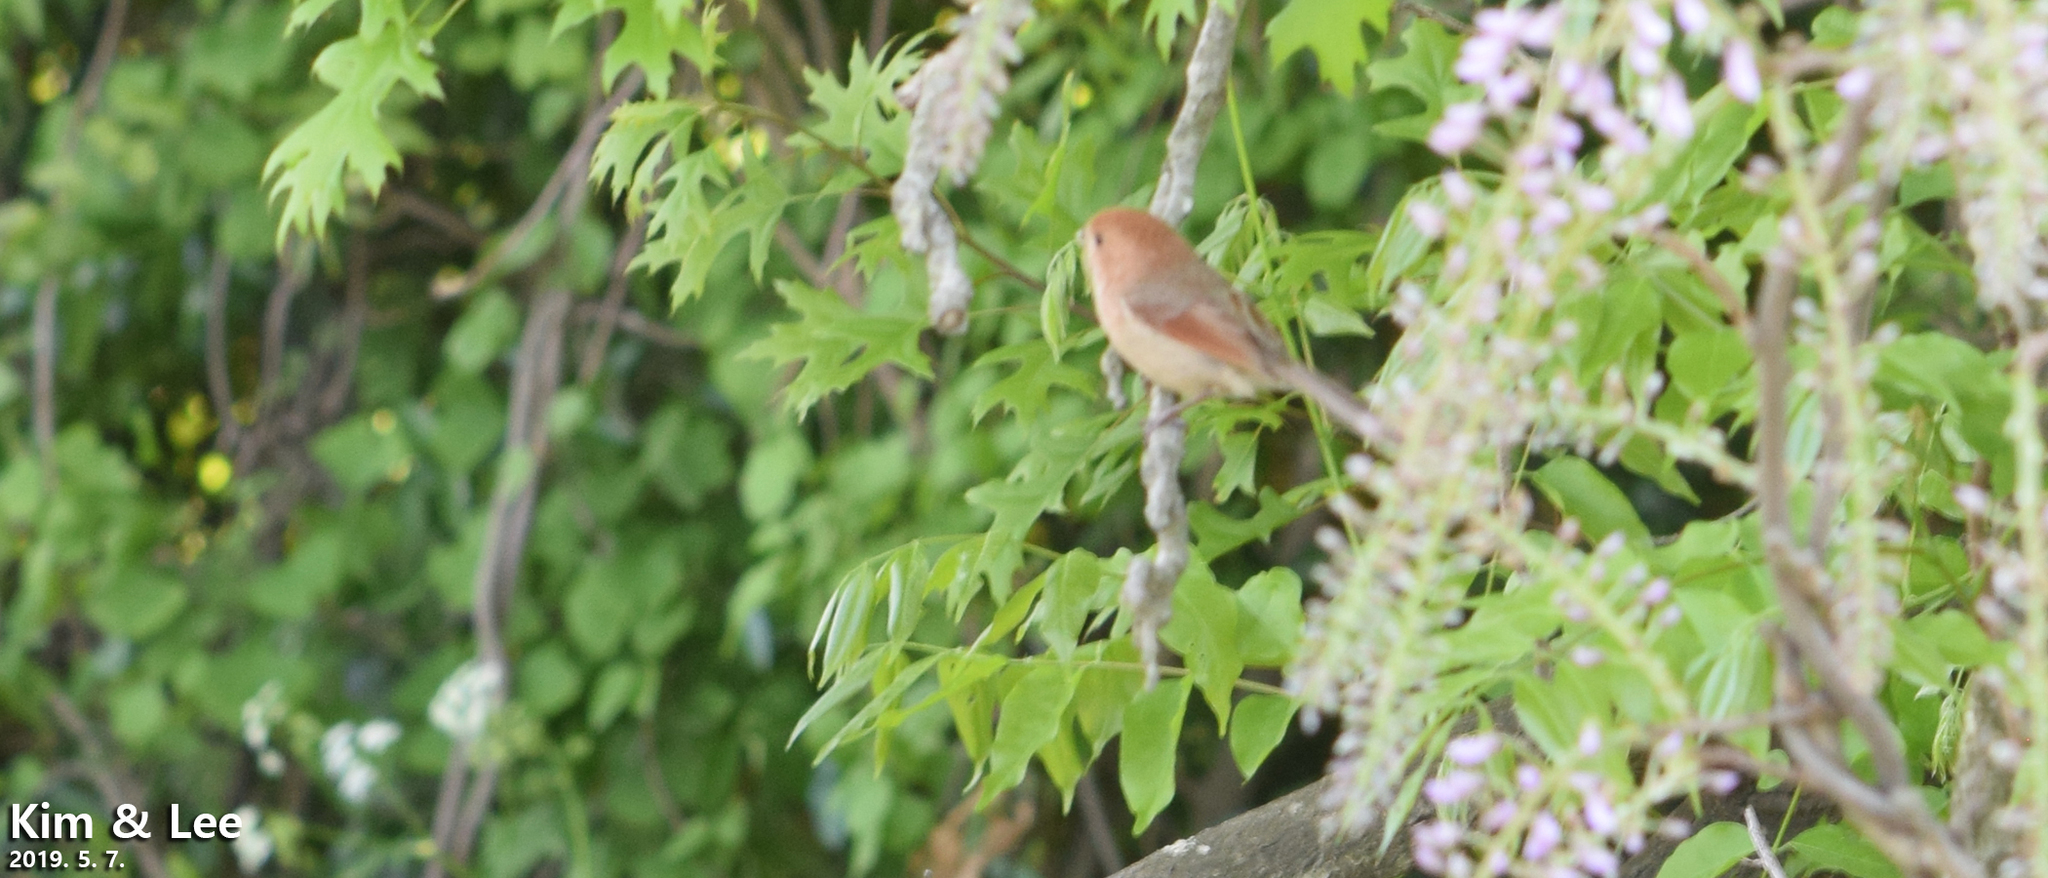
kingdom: Animalia
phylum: Chordata
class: Aves
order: Passeriformes
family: Sylviidae
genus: Sinosuthora
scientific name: Sinosuthora webbiana
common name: Vinous-throated parrotbill
